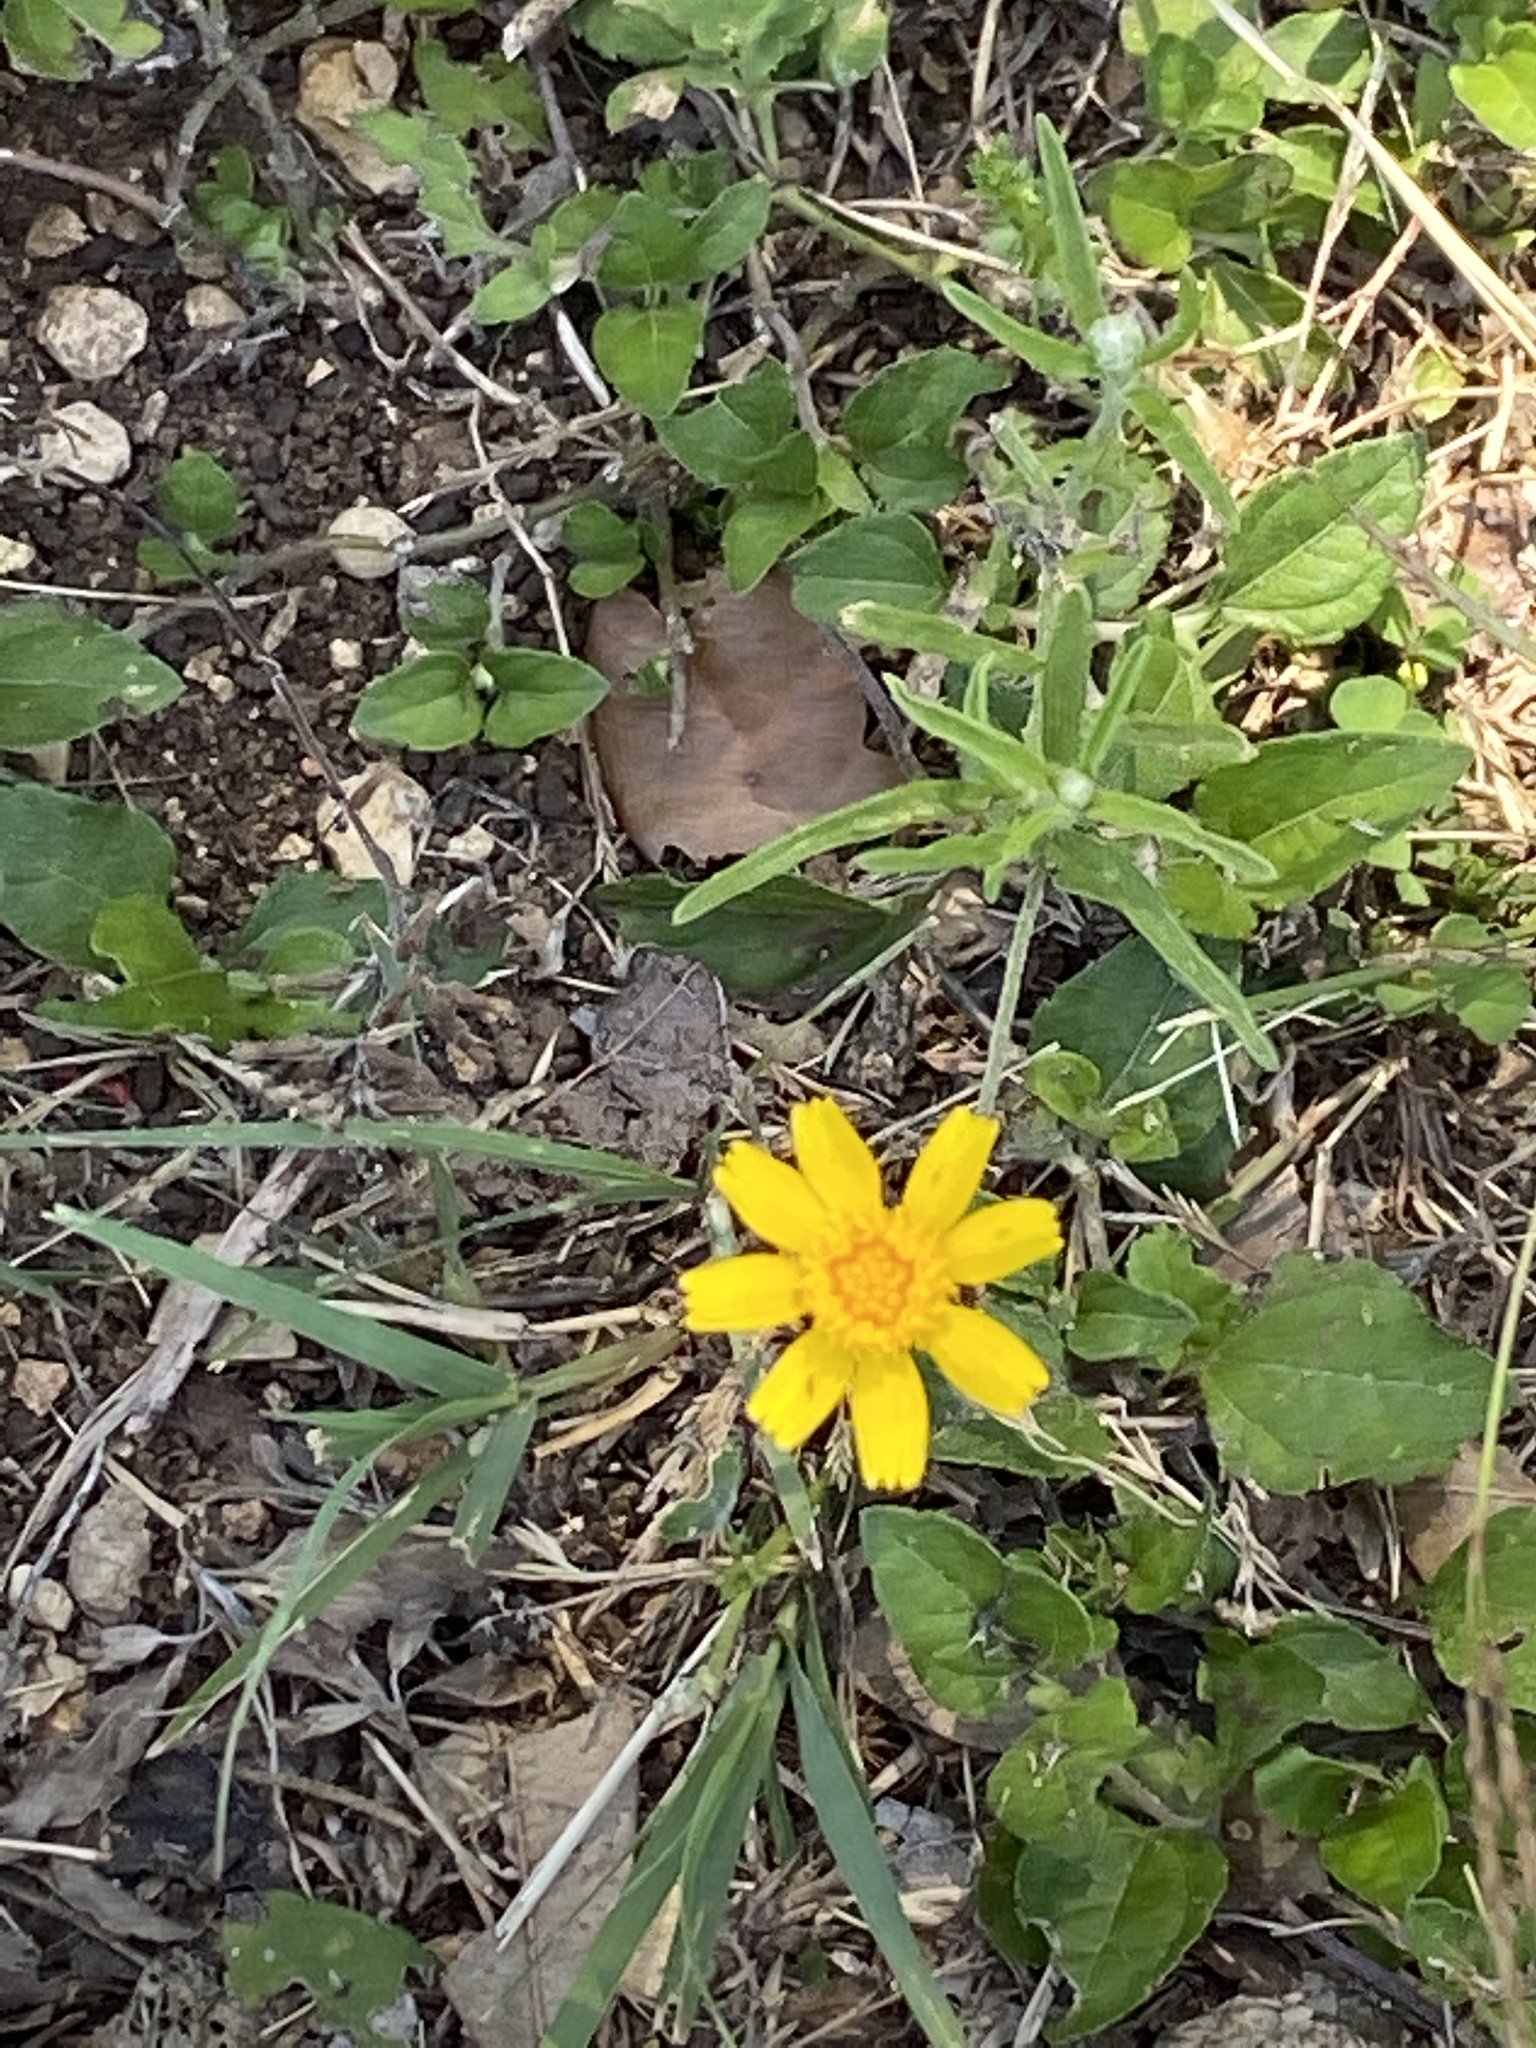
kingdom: Plantae
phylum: Tracheophyta
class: Magnoliopsida
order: Asterales
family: Asteraceae
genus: Tetraneuris
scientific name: Tetraneuris linearifolia
